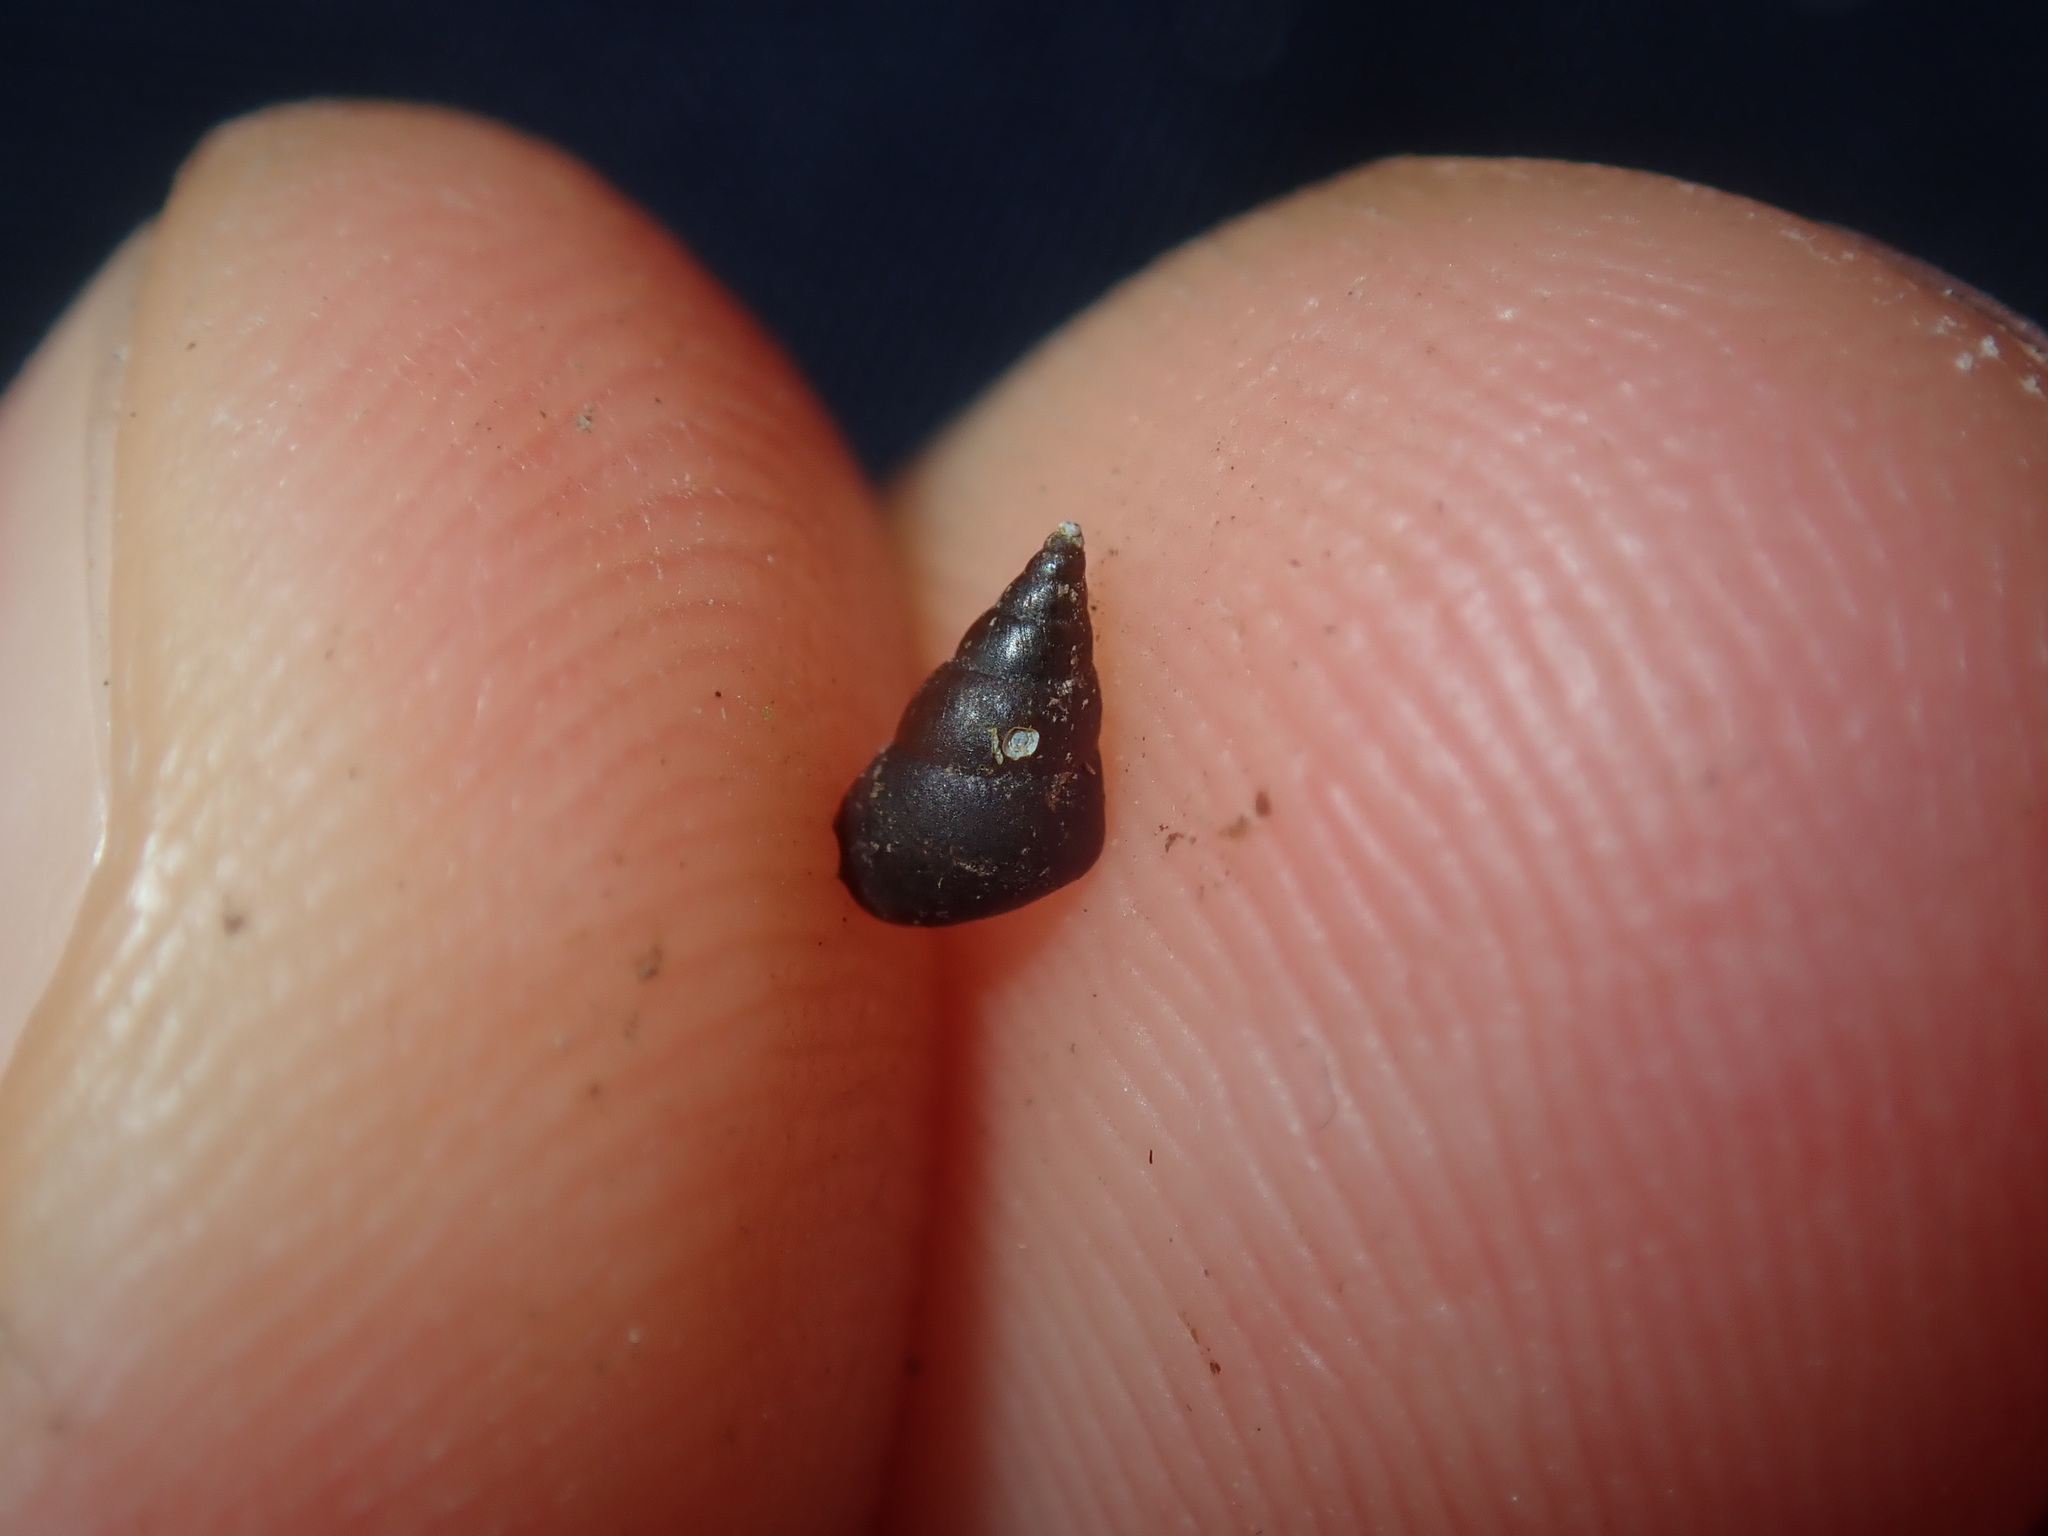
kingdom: Animalia
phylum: Mollusca
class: Gastropoda
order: Littorinimorpha
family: Tateidae
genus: Tatea
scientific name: Tatea huonensis
